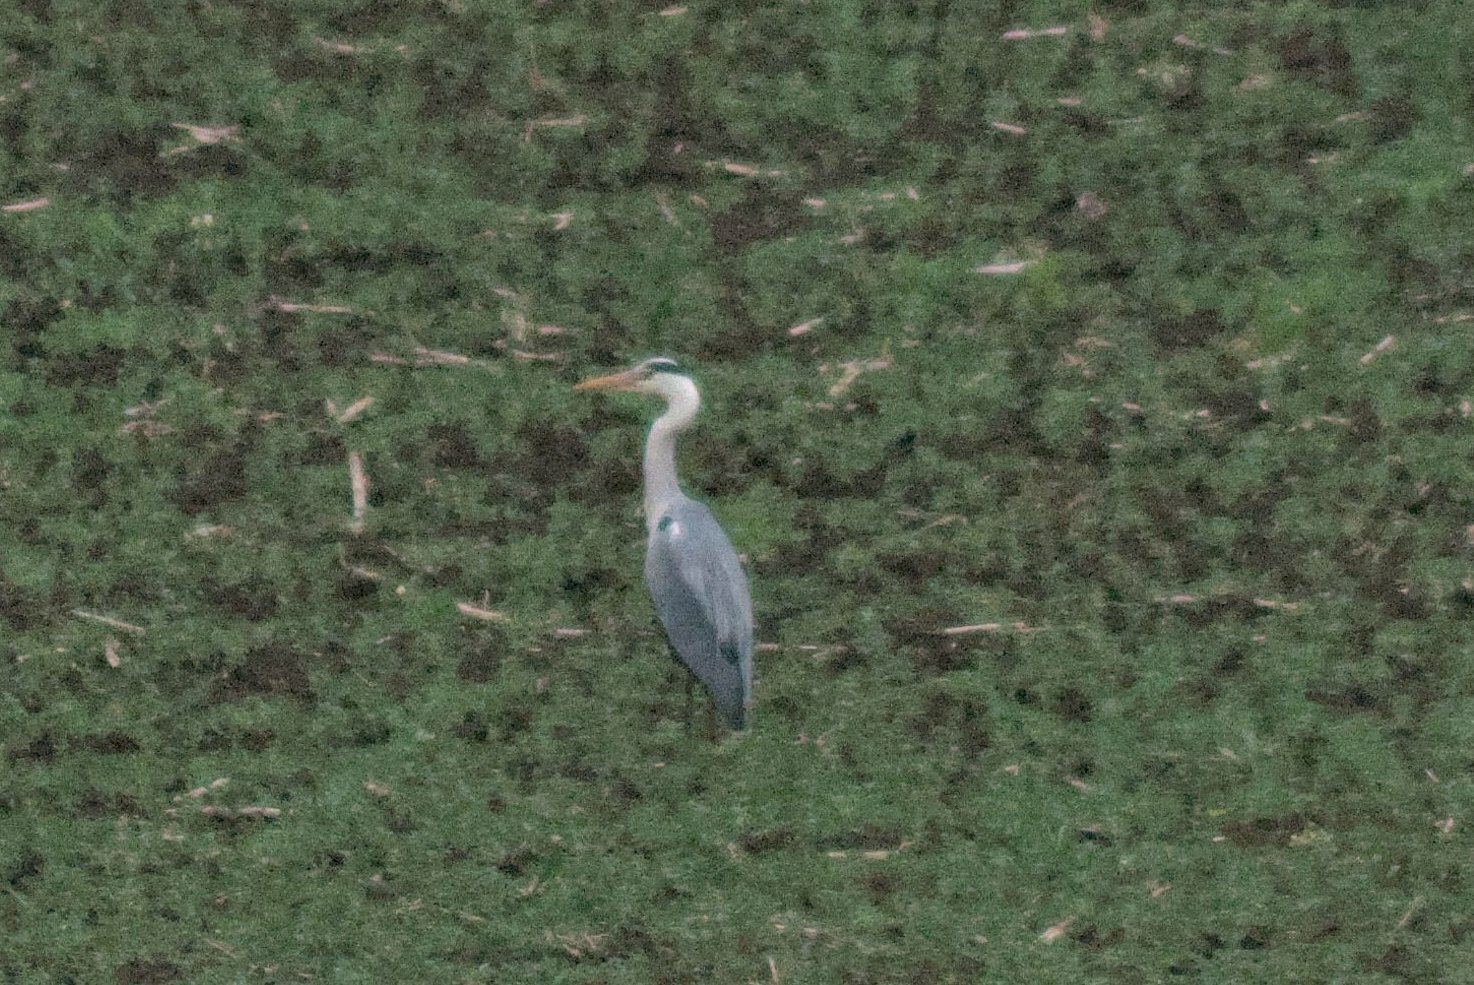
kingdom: Animalia
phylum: Chordata
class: Aves
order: Pelecaniformes
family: Ardeidae
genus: Ardea
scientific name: Ardea cinerea
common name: Grey heron
